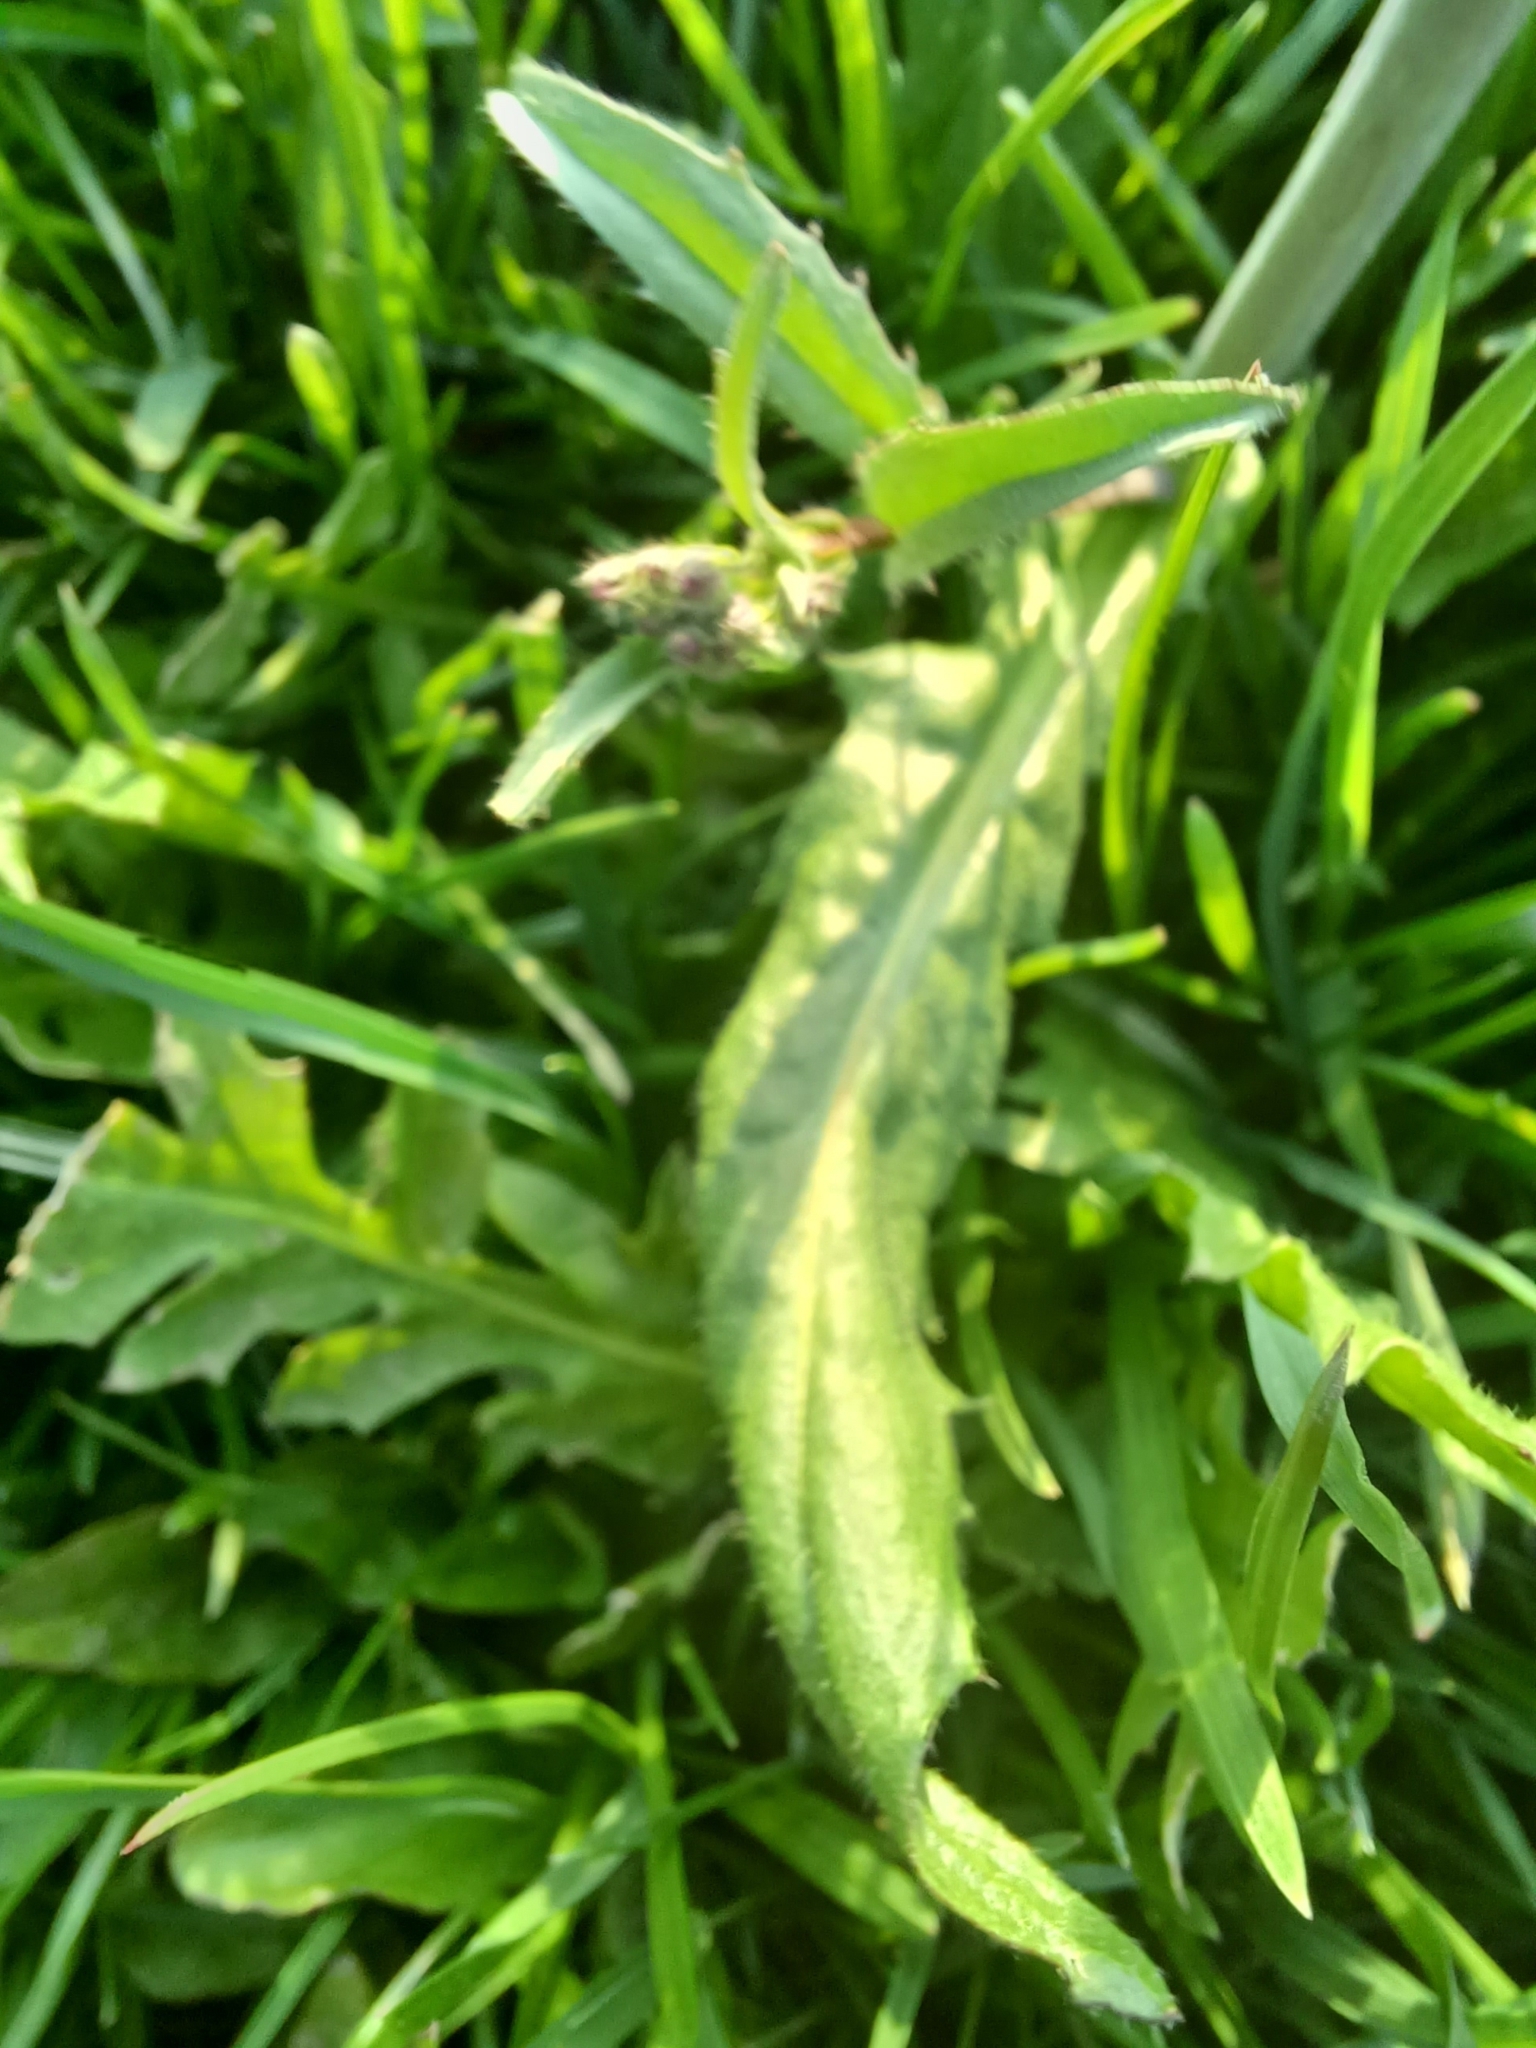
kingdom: Plantae
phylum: Tracheophyta
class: Magnoliopsida
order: Brassicales
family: Brassicaceae
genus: Capsella
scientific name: Capsella bursa-pastoris
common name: Shepherd's purse
